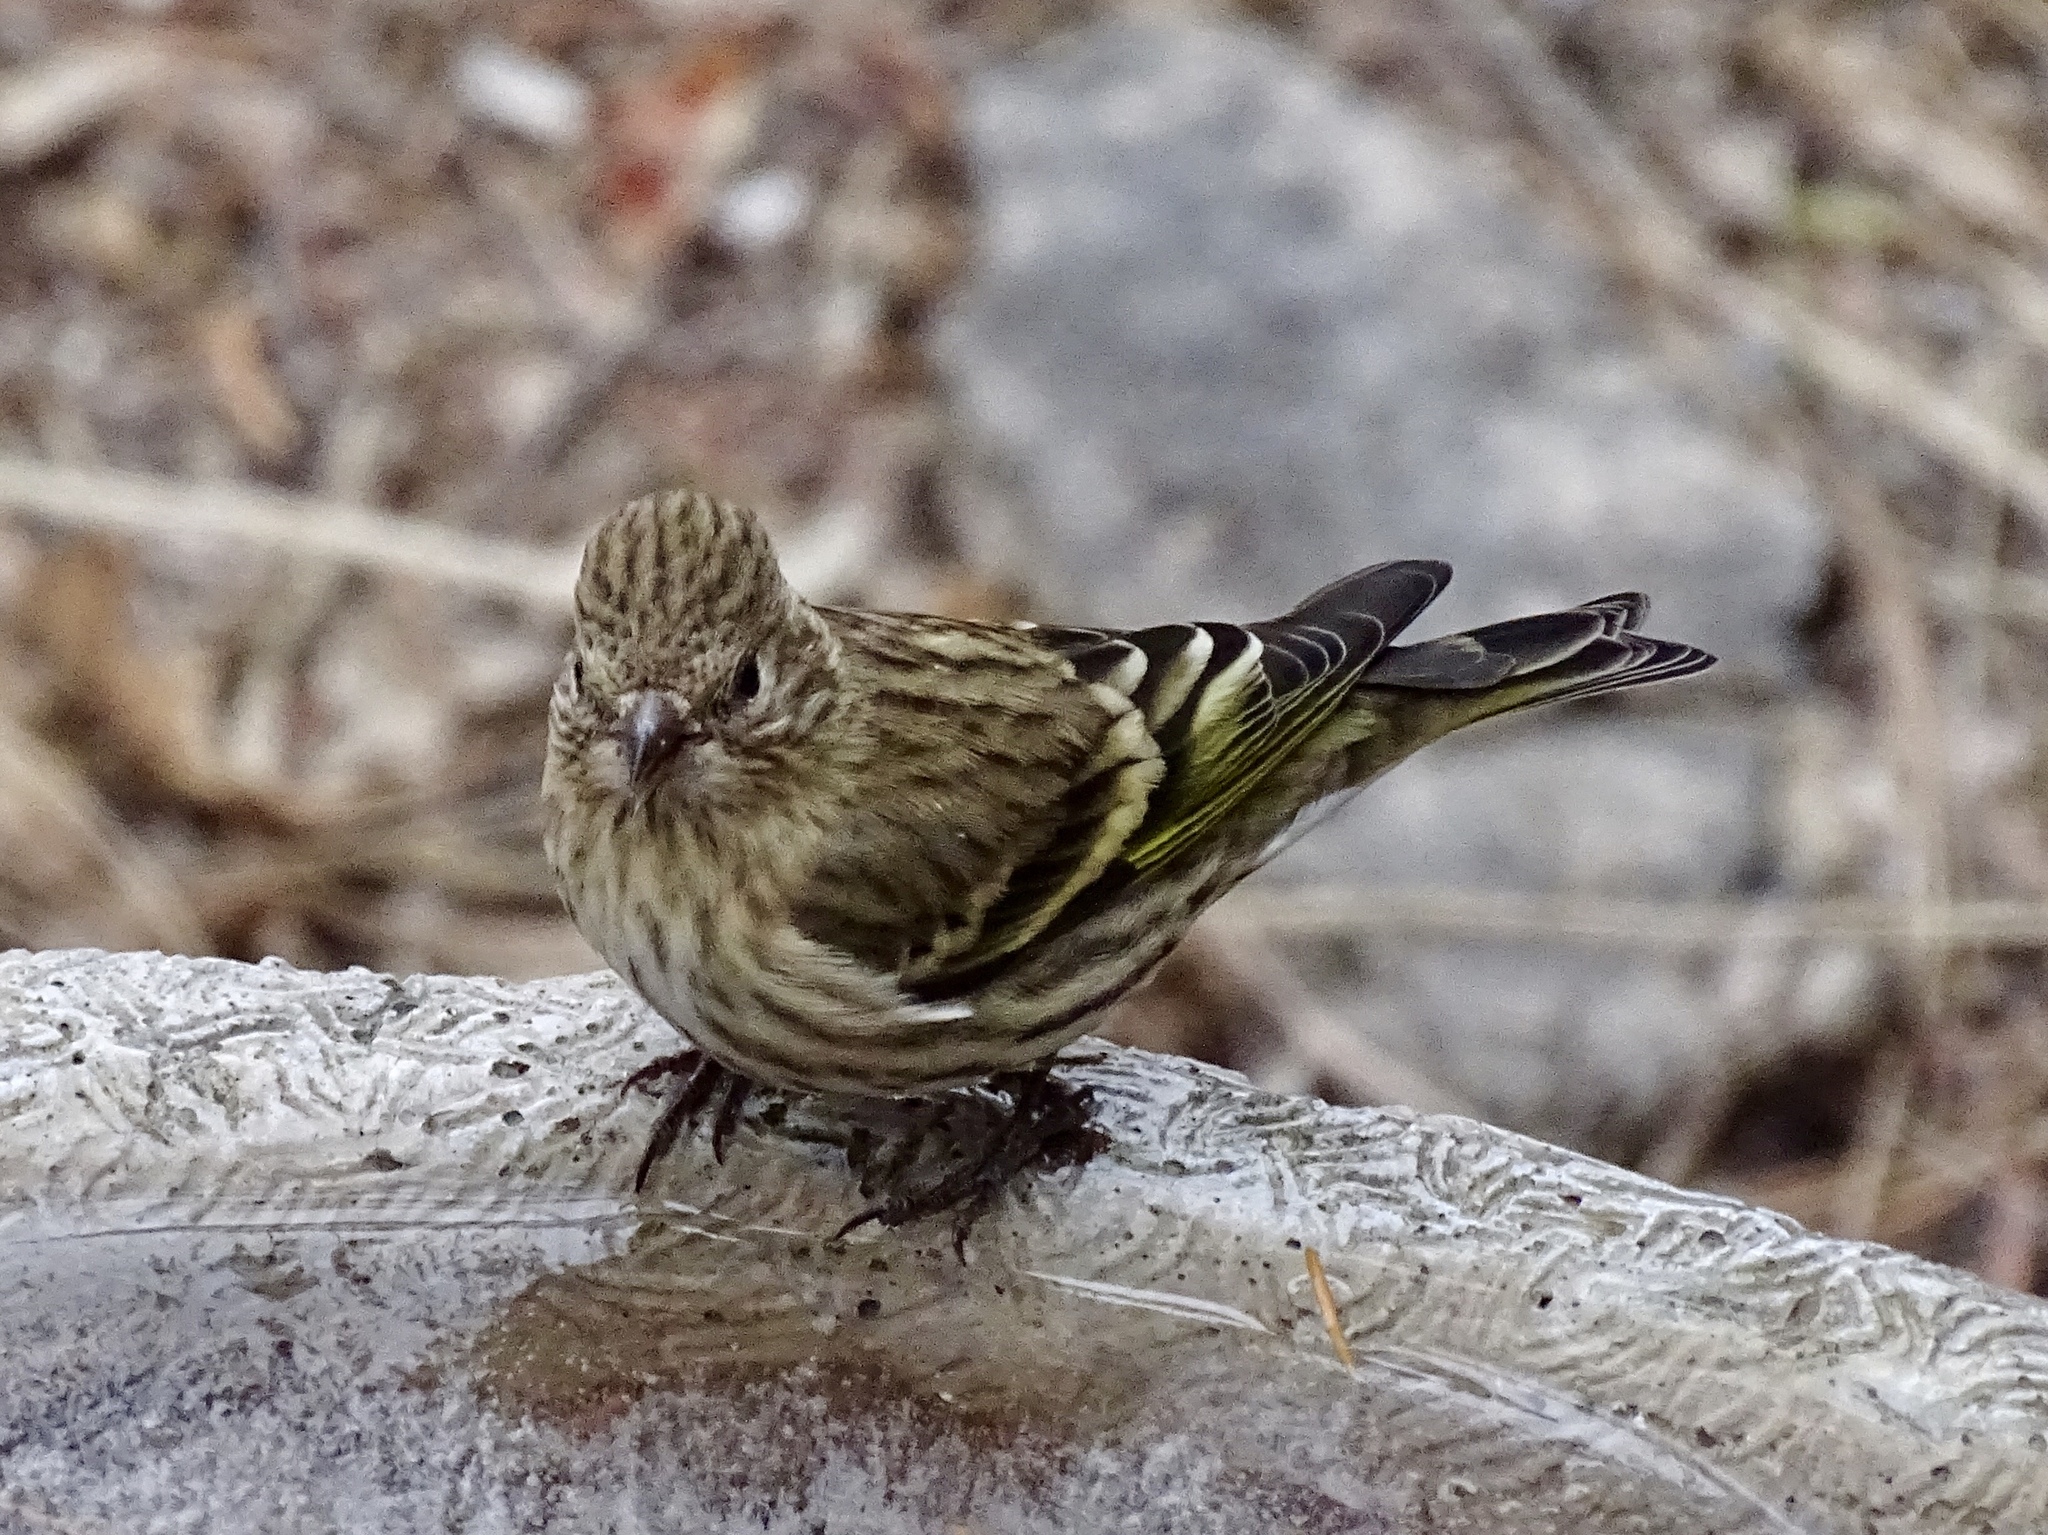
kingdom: Animalia
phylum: Chordata
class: Aves
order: Passeriformes
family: Fringillidae
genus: Spinus
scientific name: Spinus pinus
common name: Pine siskin
